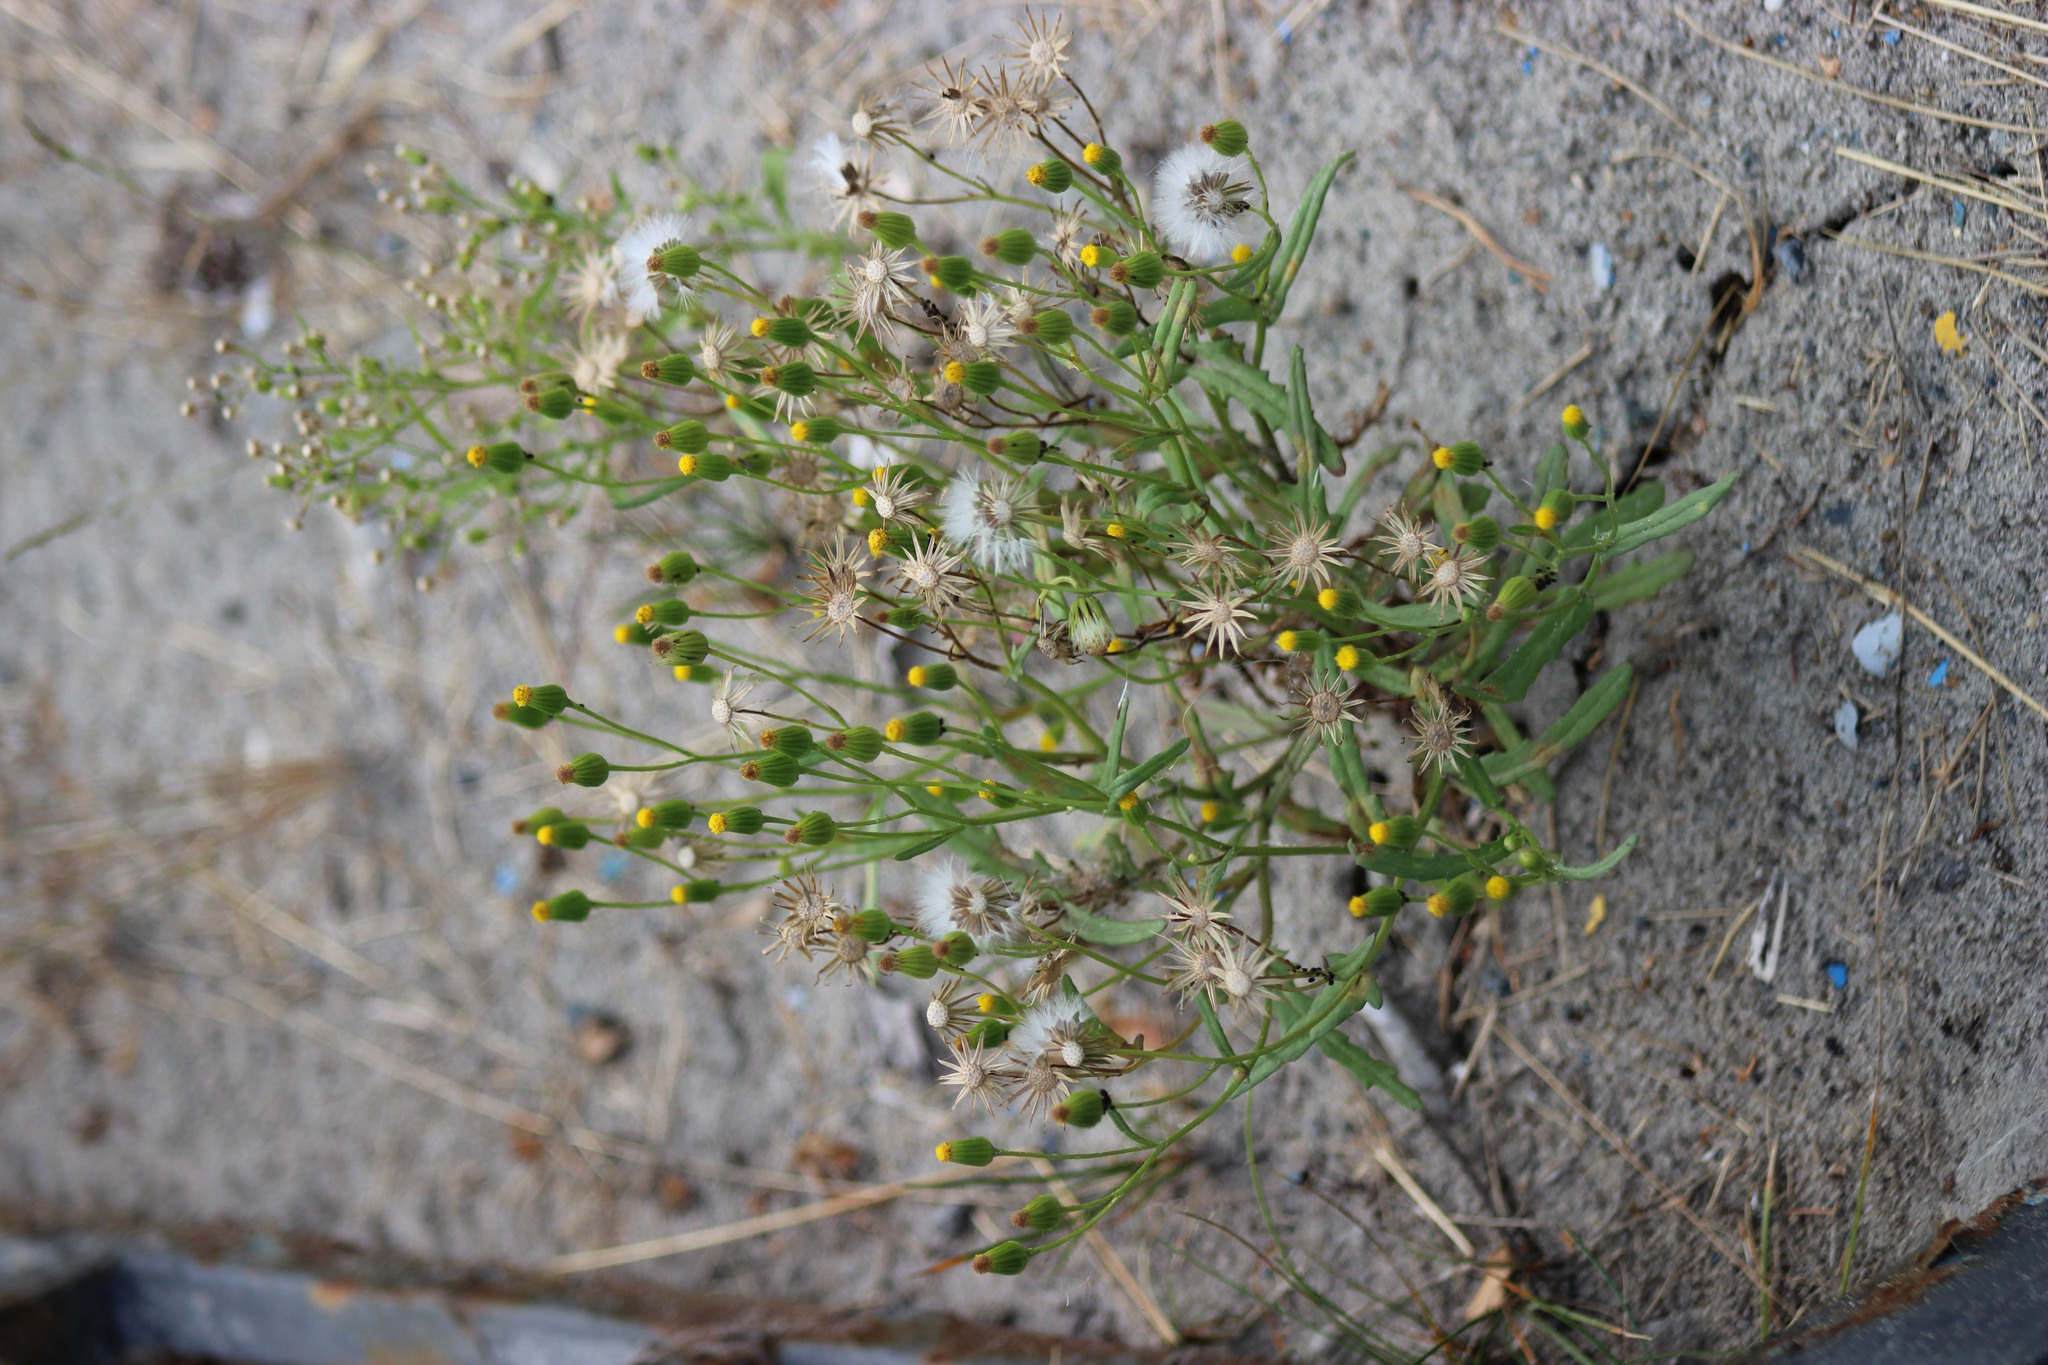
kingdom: Plantae
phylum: Tracheophyta
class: Magnoliopsida
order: Asterales
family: Asteraceae
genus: Senecio
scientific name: Senecio dubitabilis
